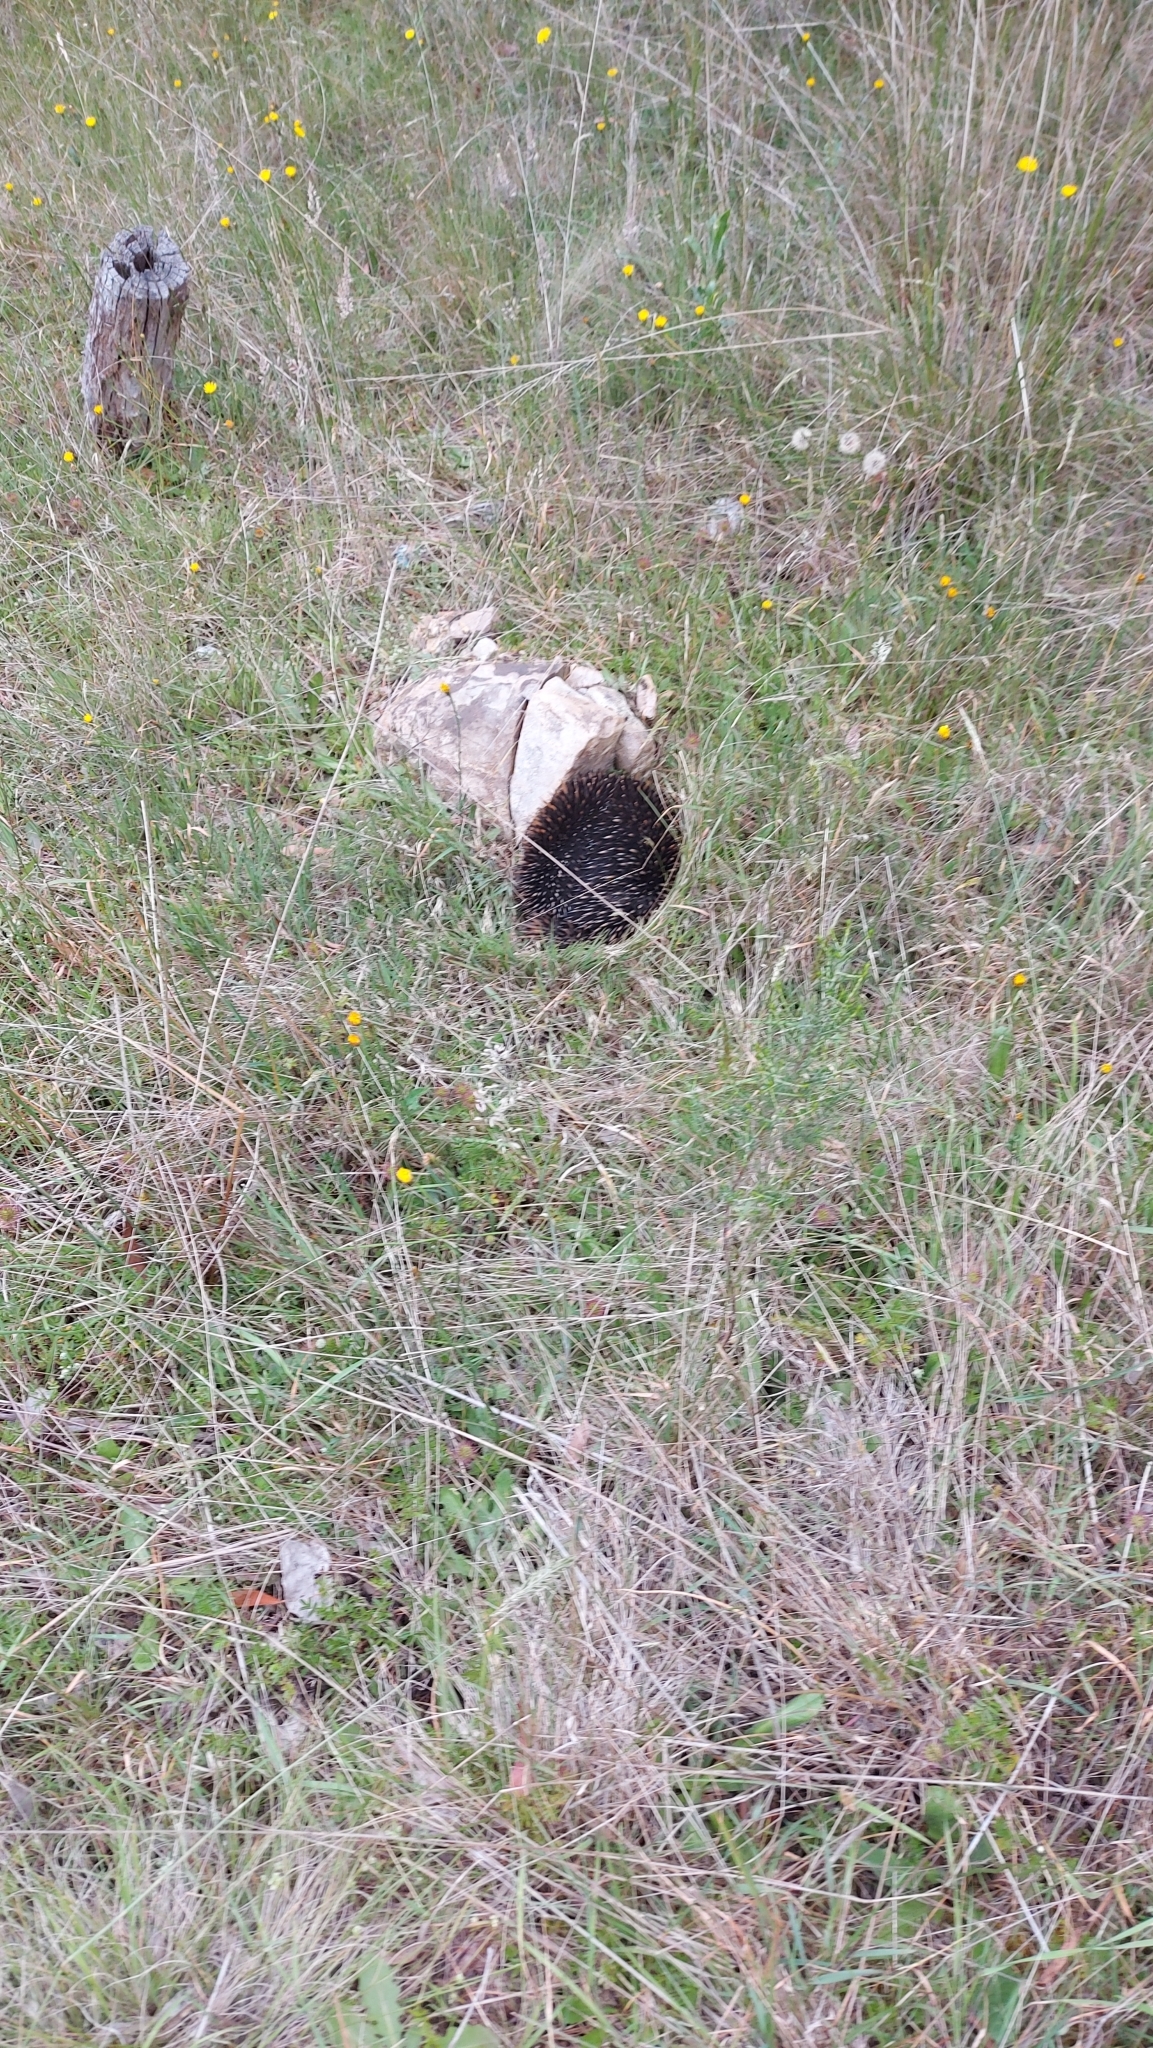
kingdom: Animalia
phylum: Chordata
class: Mammalia
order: Monotremata
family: Tachyglossidae
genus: Tachyglossus
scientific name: Tachyglossus aculeatus
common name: Short-beaked echidna
